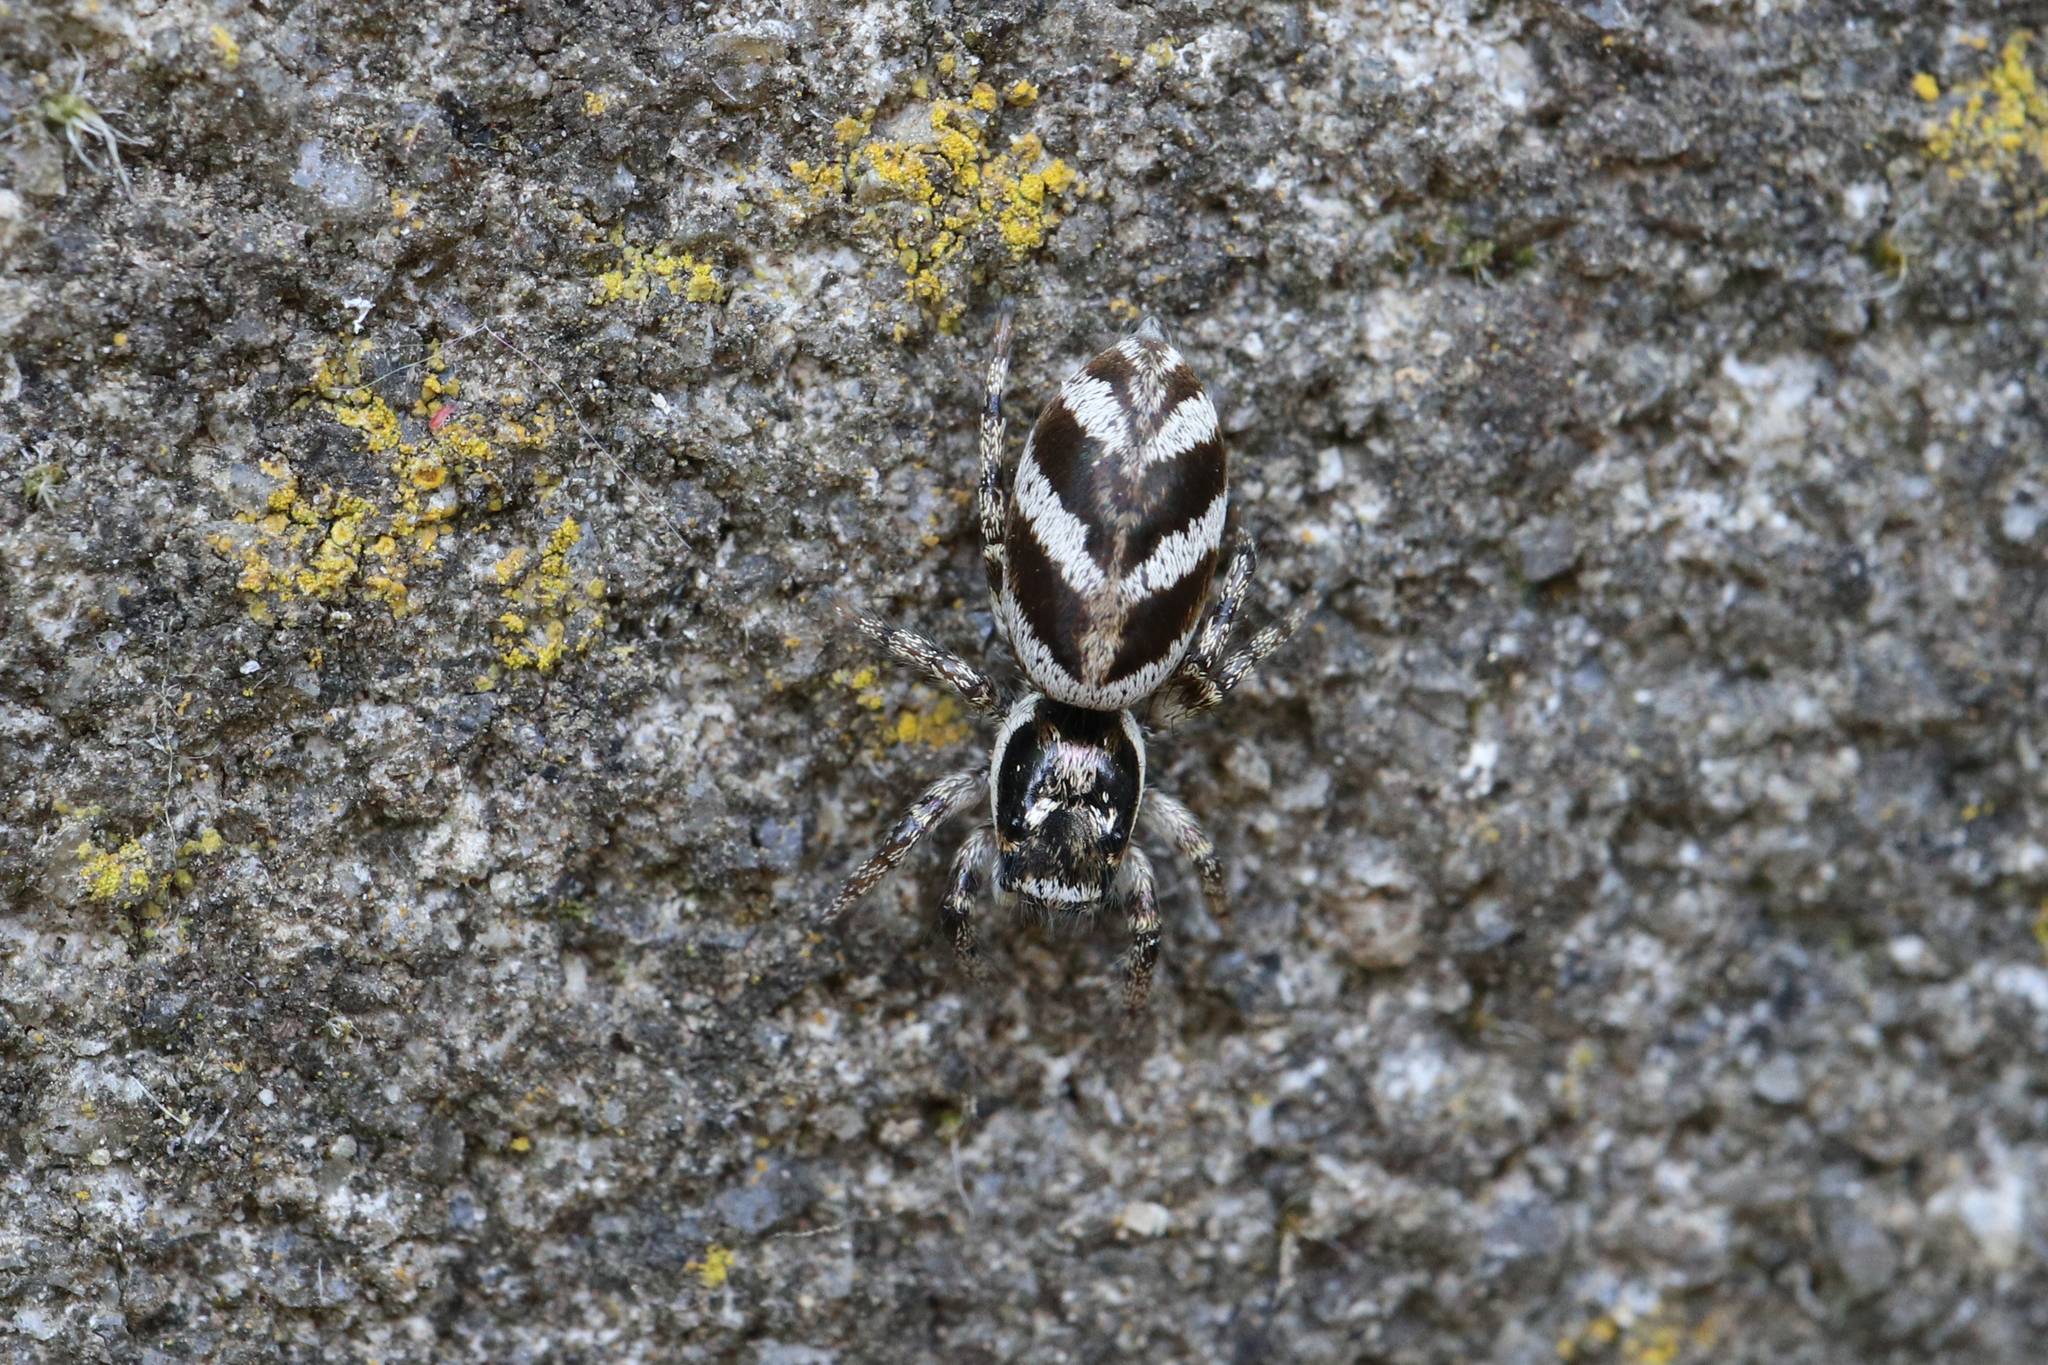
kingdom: Animalia
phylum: Arthropoda
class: Arachnida
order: Araneae
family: Salticidae
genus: Salticus
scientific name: Salticus scenicus
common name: Zebra jumper
